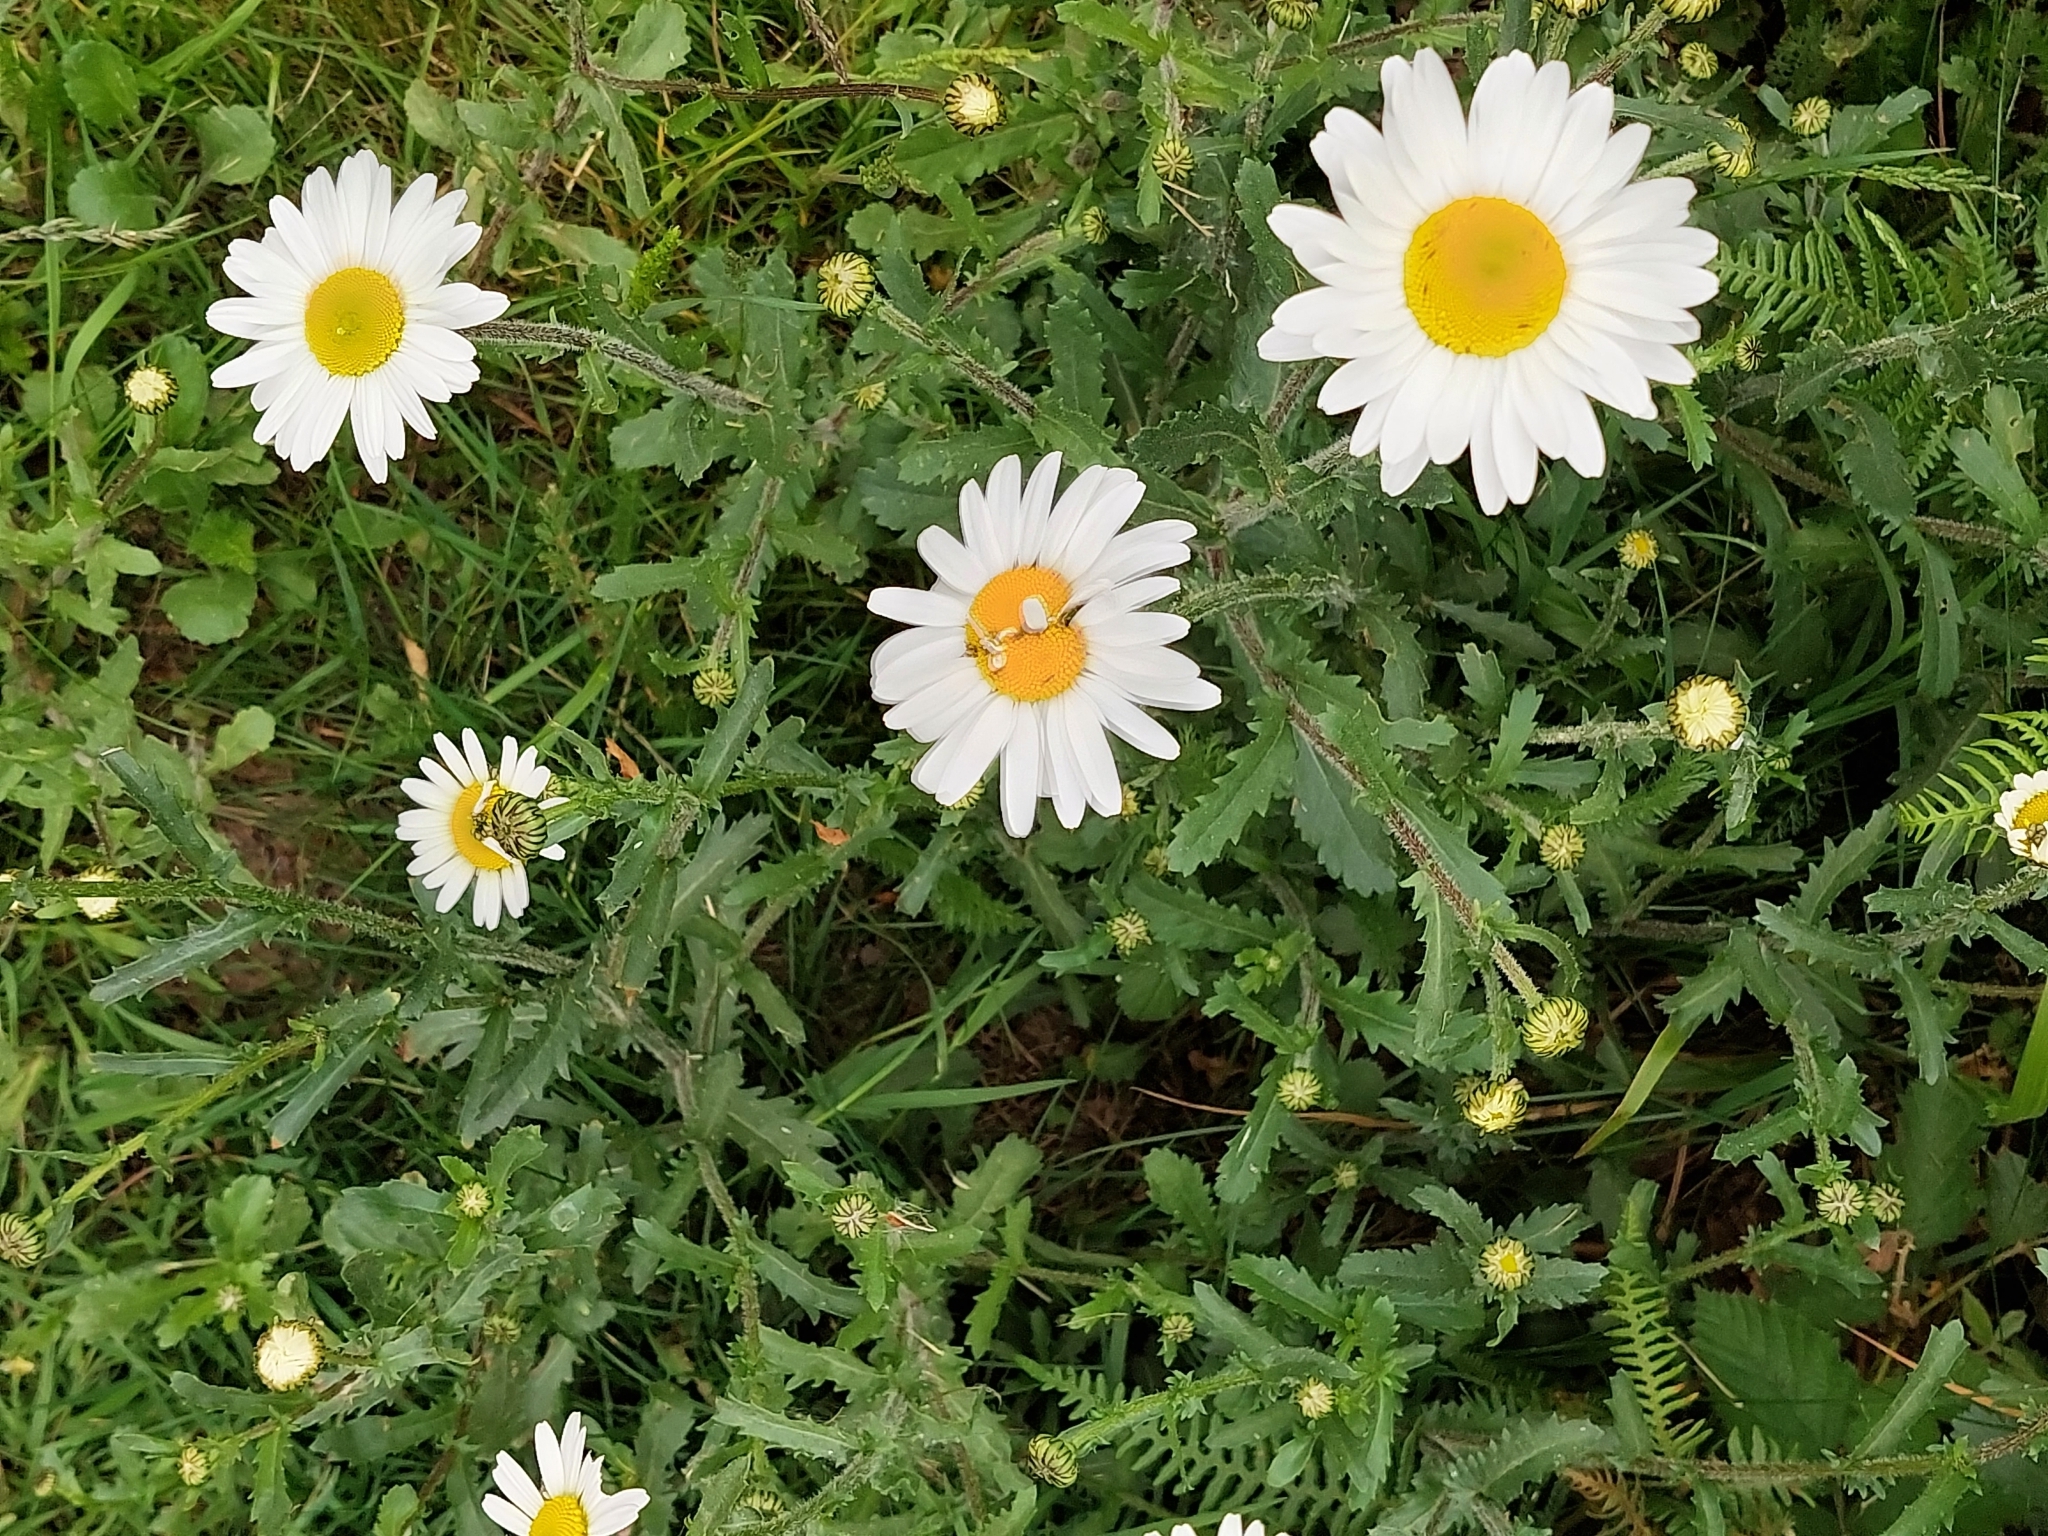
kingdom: Plantae
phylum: Tracheophyta
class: Magnoliopsida
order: Asterales
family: Asteraceae
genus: Leucanthemum
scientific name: Leucanthemum vulgare
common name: Oxeye daisy
